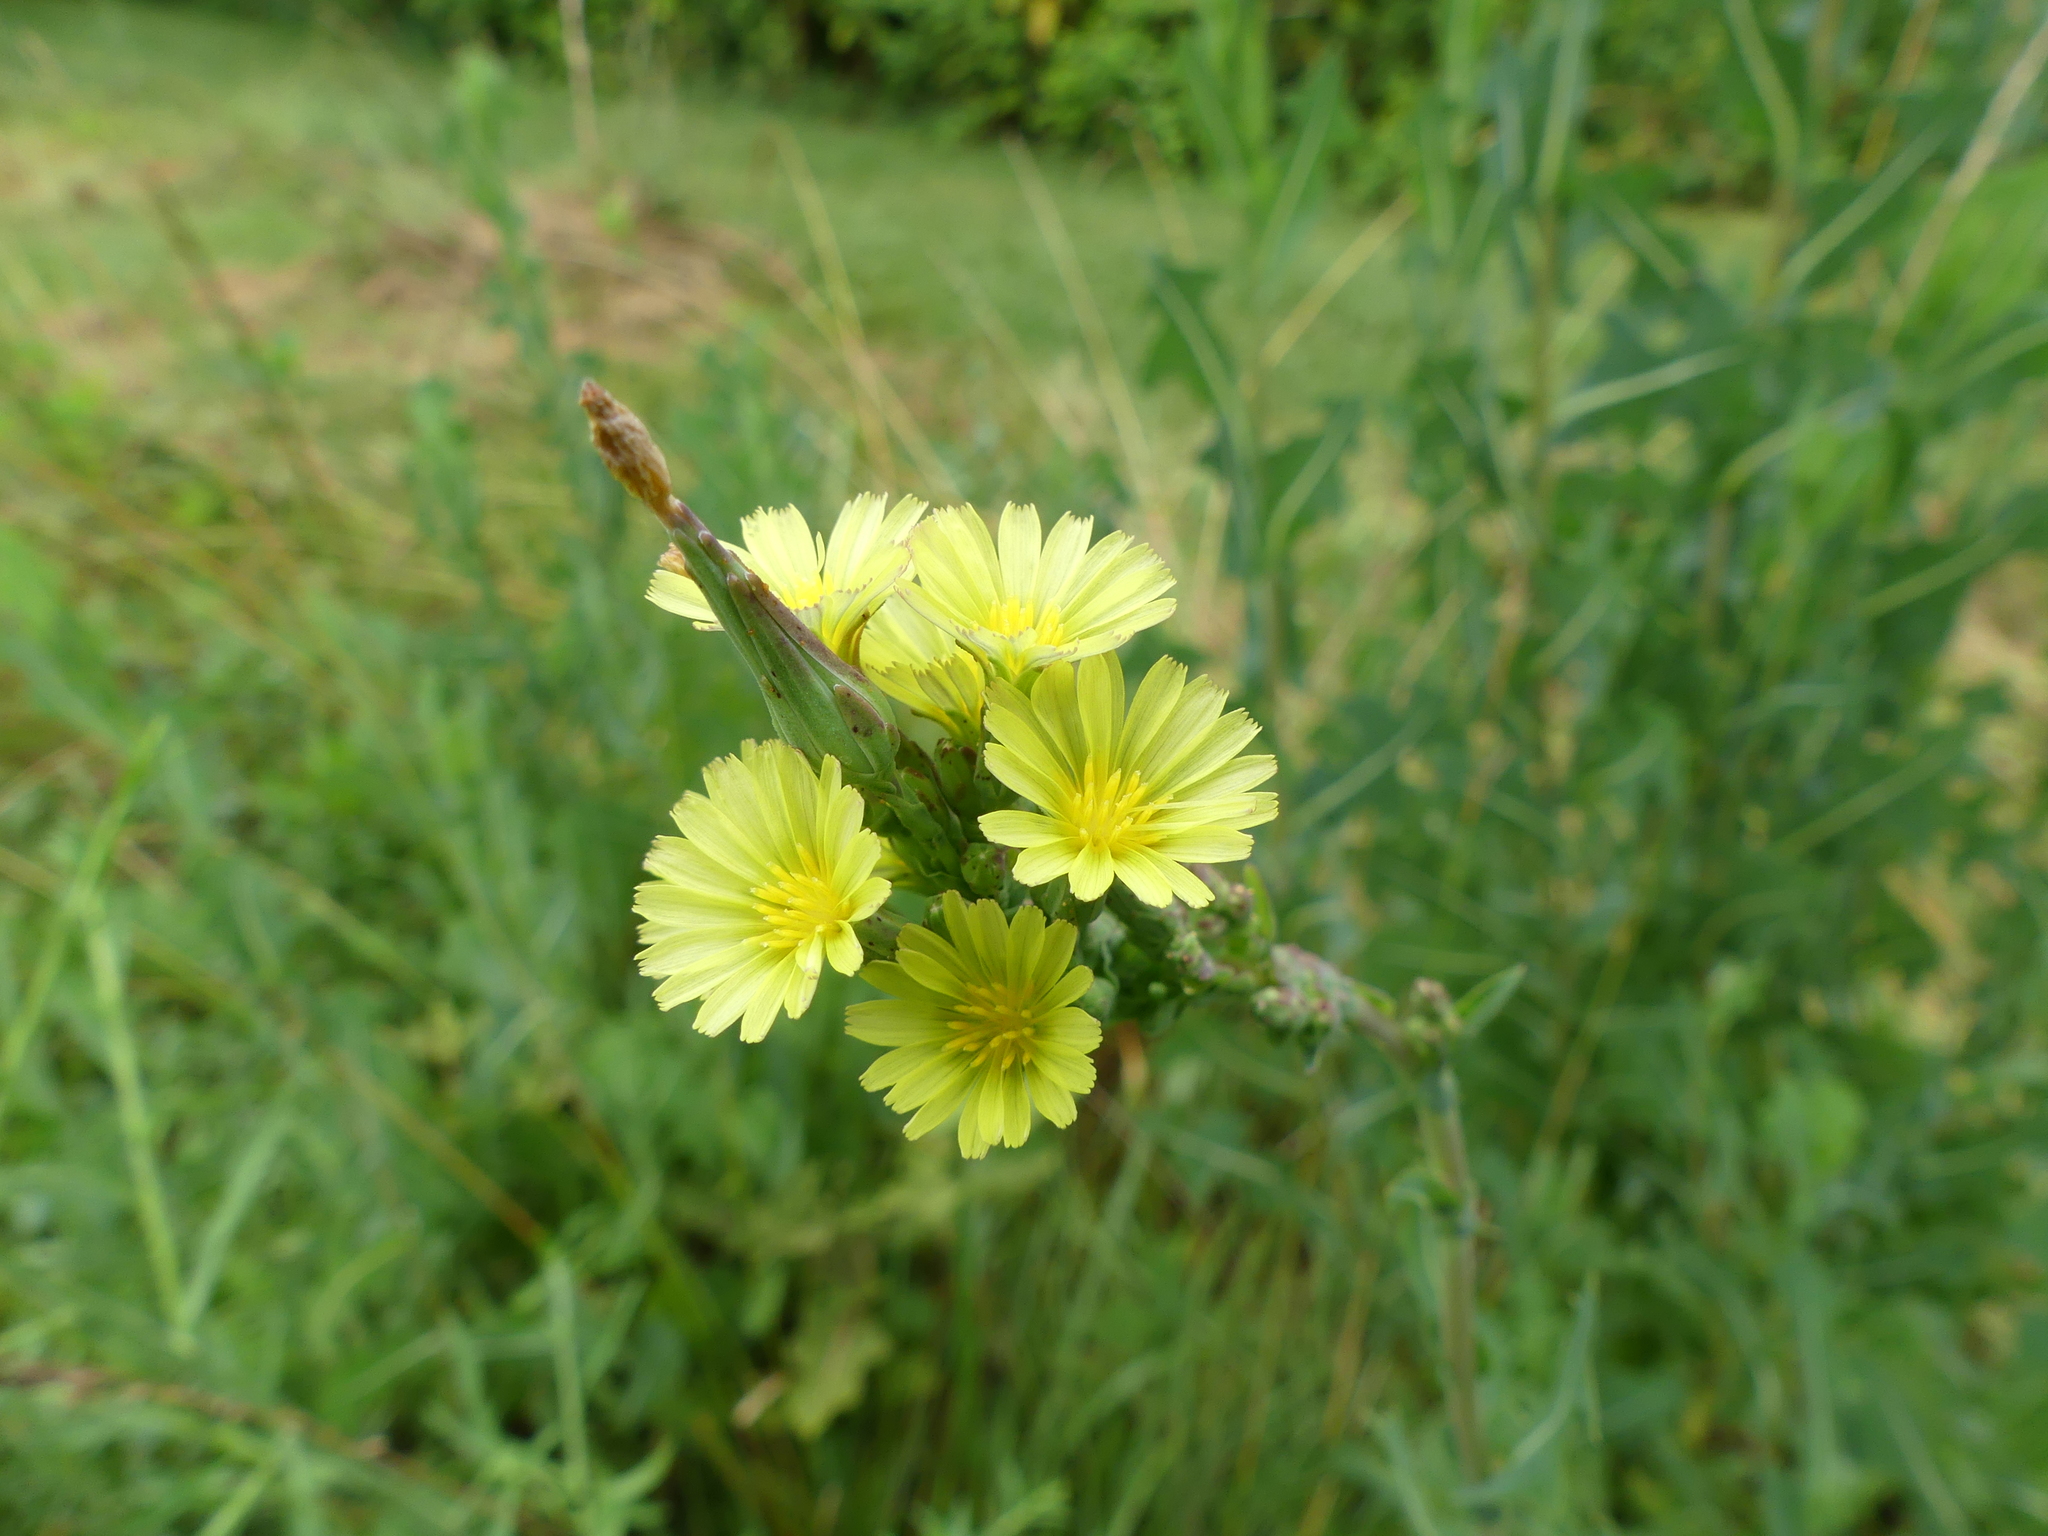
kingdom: Plantae
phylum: Tracheophyta
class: Magnoliopsida
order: Asterales
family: Asteraceae
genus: Lactuca
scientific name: Lactuca serriola
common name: Prickly lettuce
